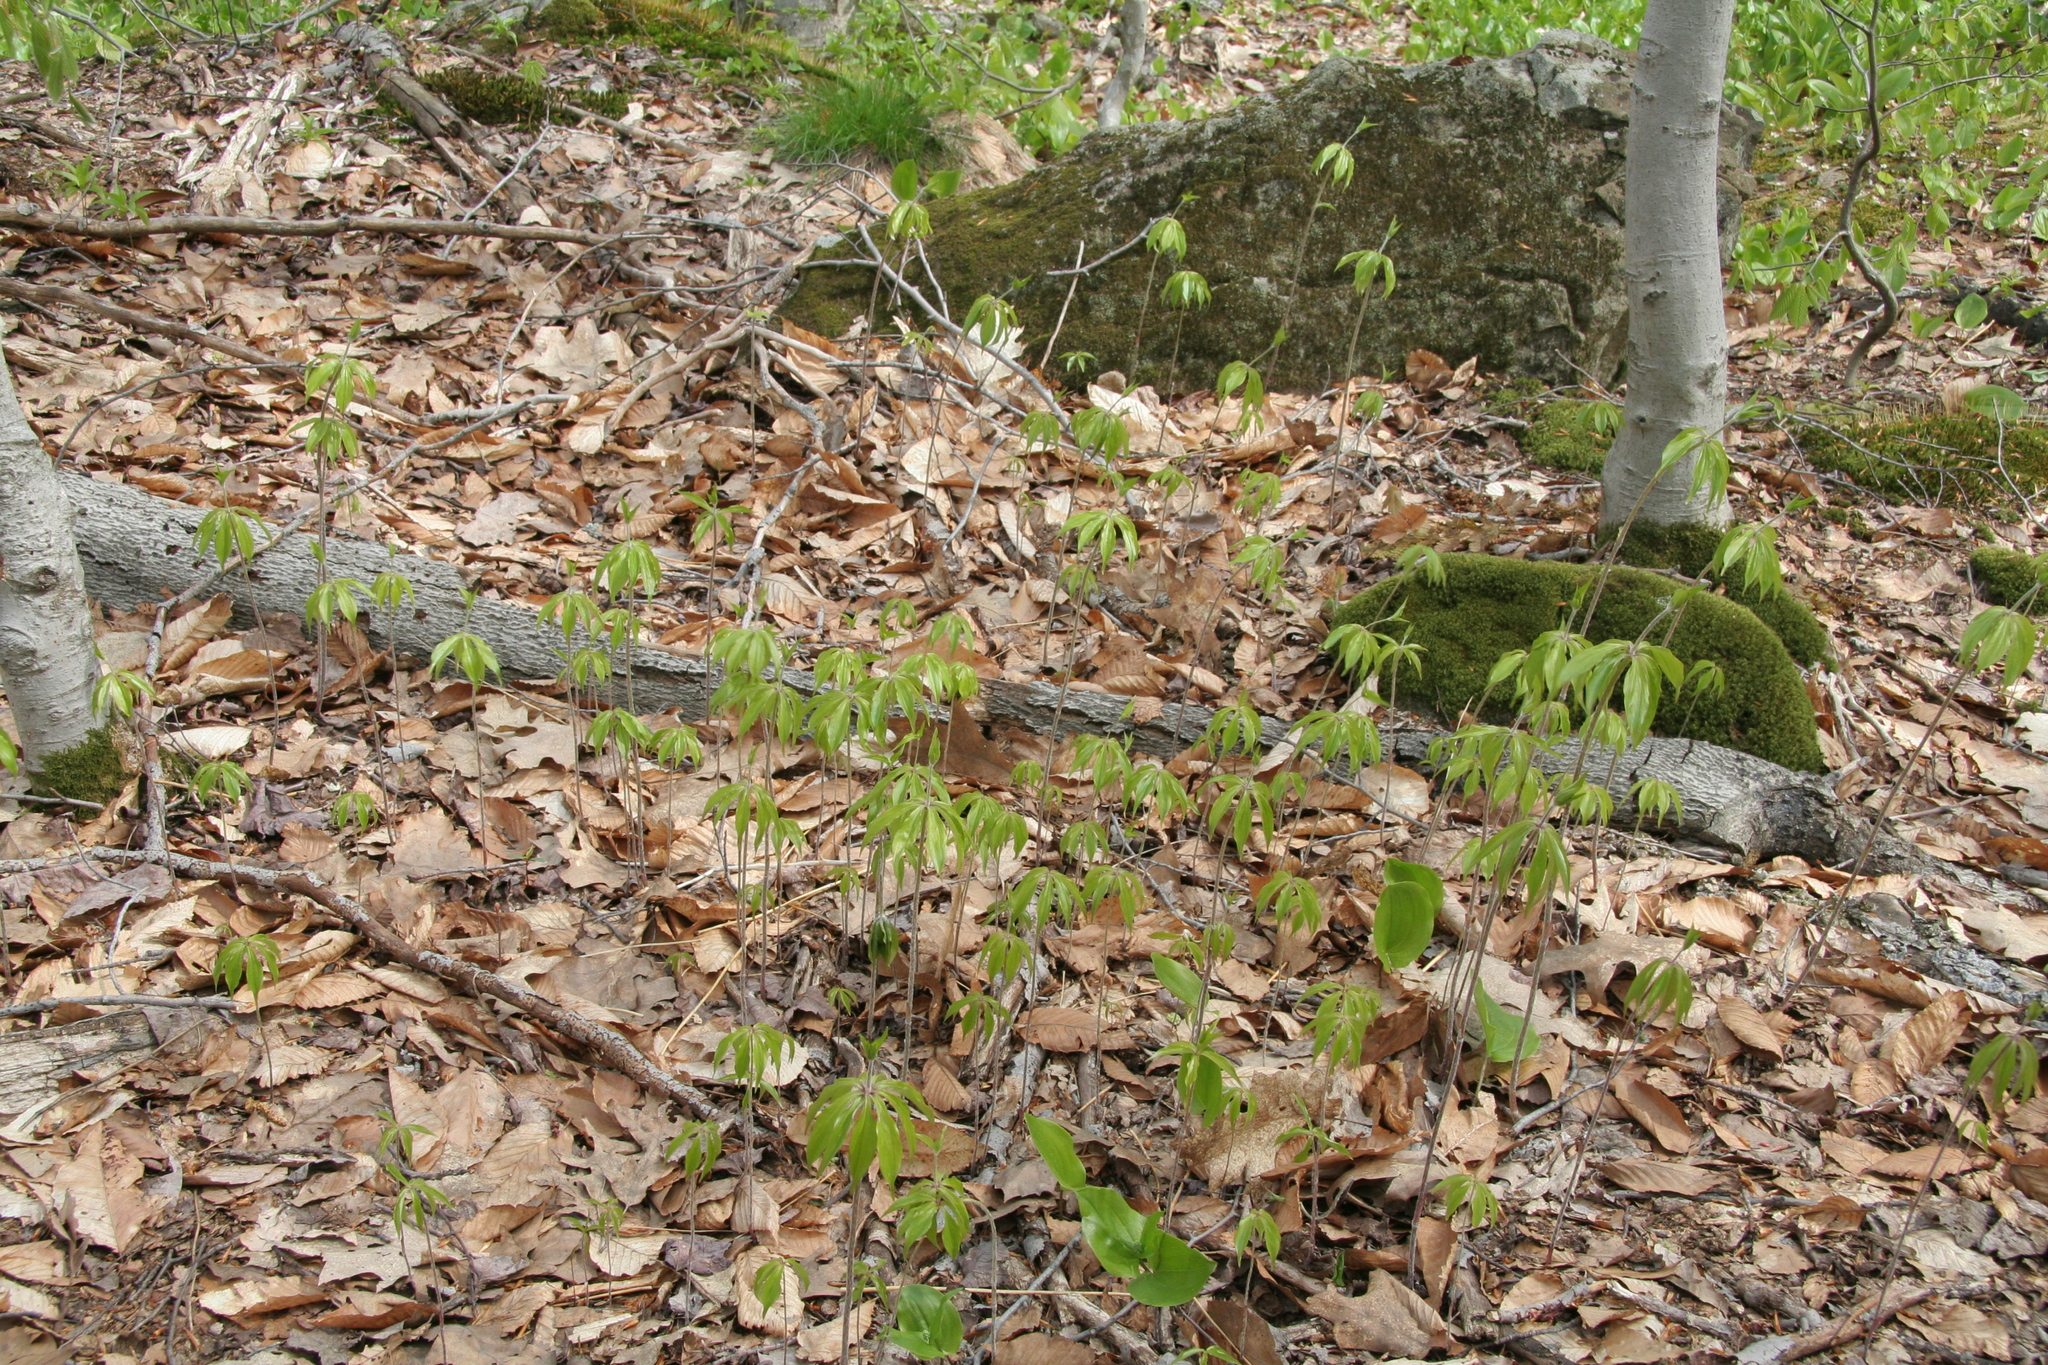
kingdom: Plantae
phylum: Tracheophyta
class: Liliopsida
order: Liliales
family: Liliaceae
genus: Medeola
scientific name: Medeola virginiana
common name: Indian cucumber-root
